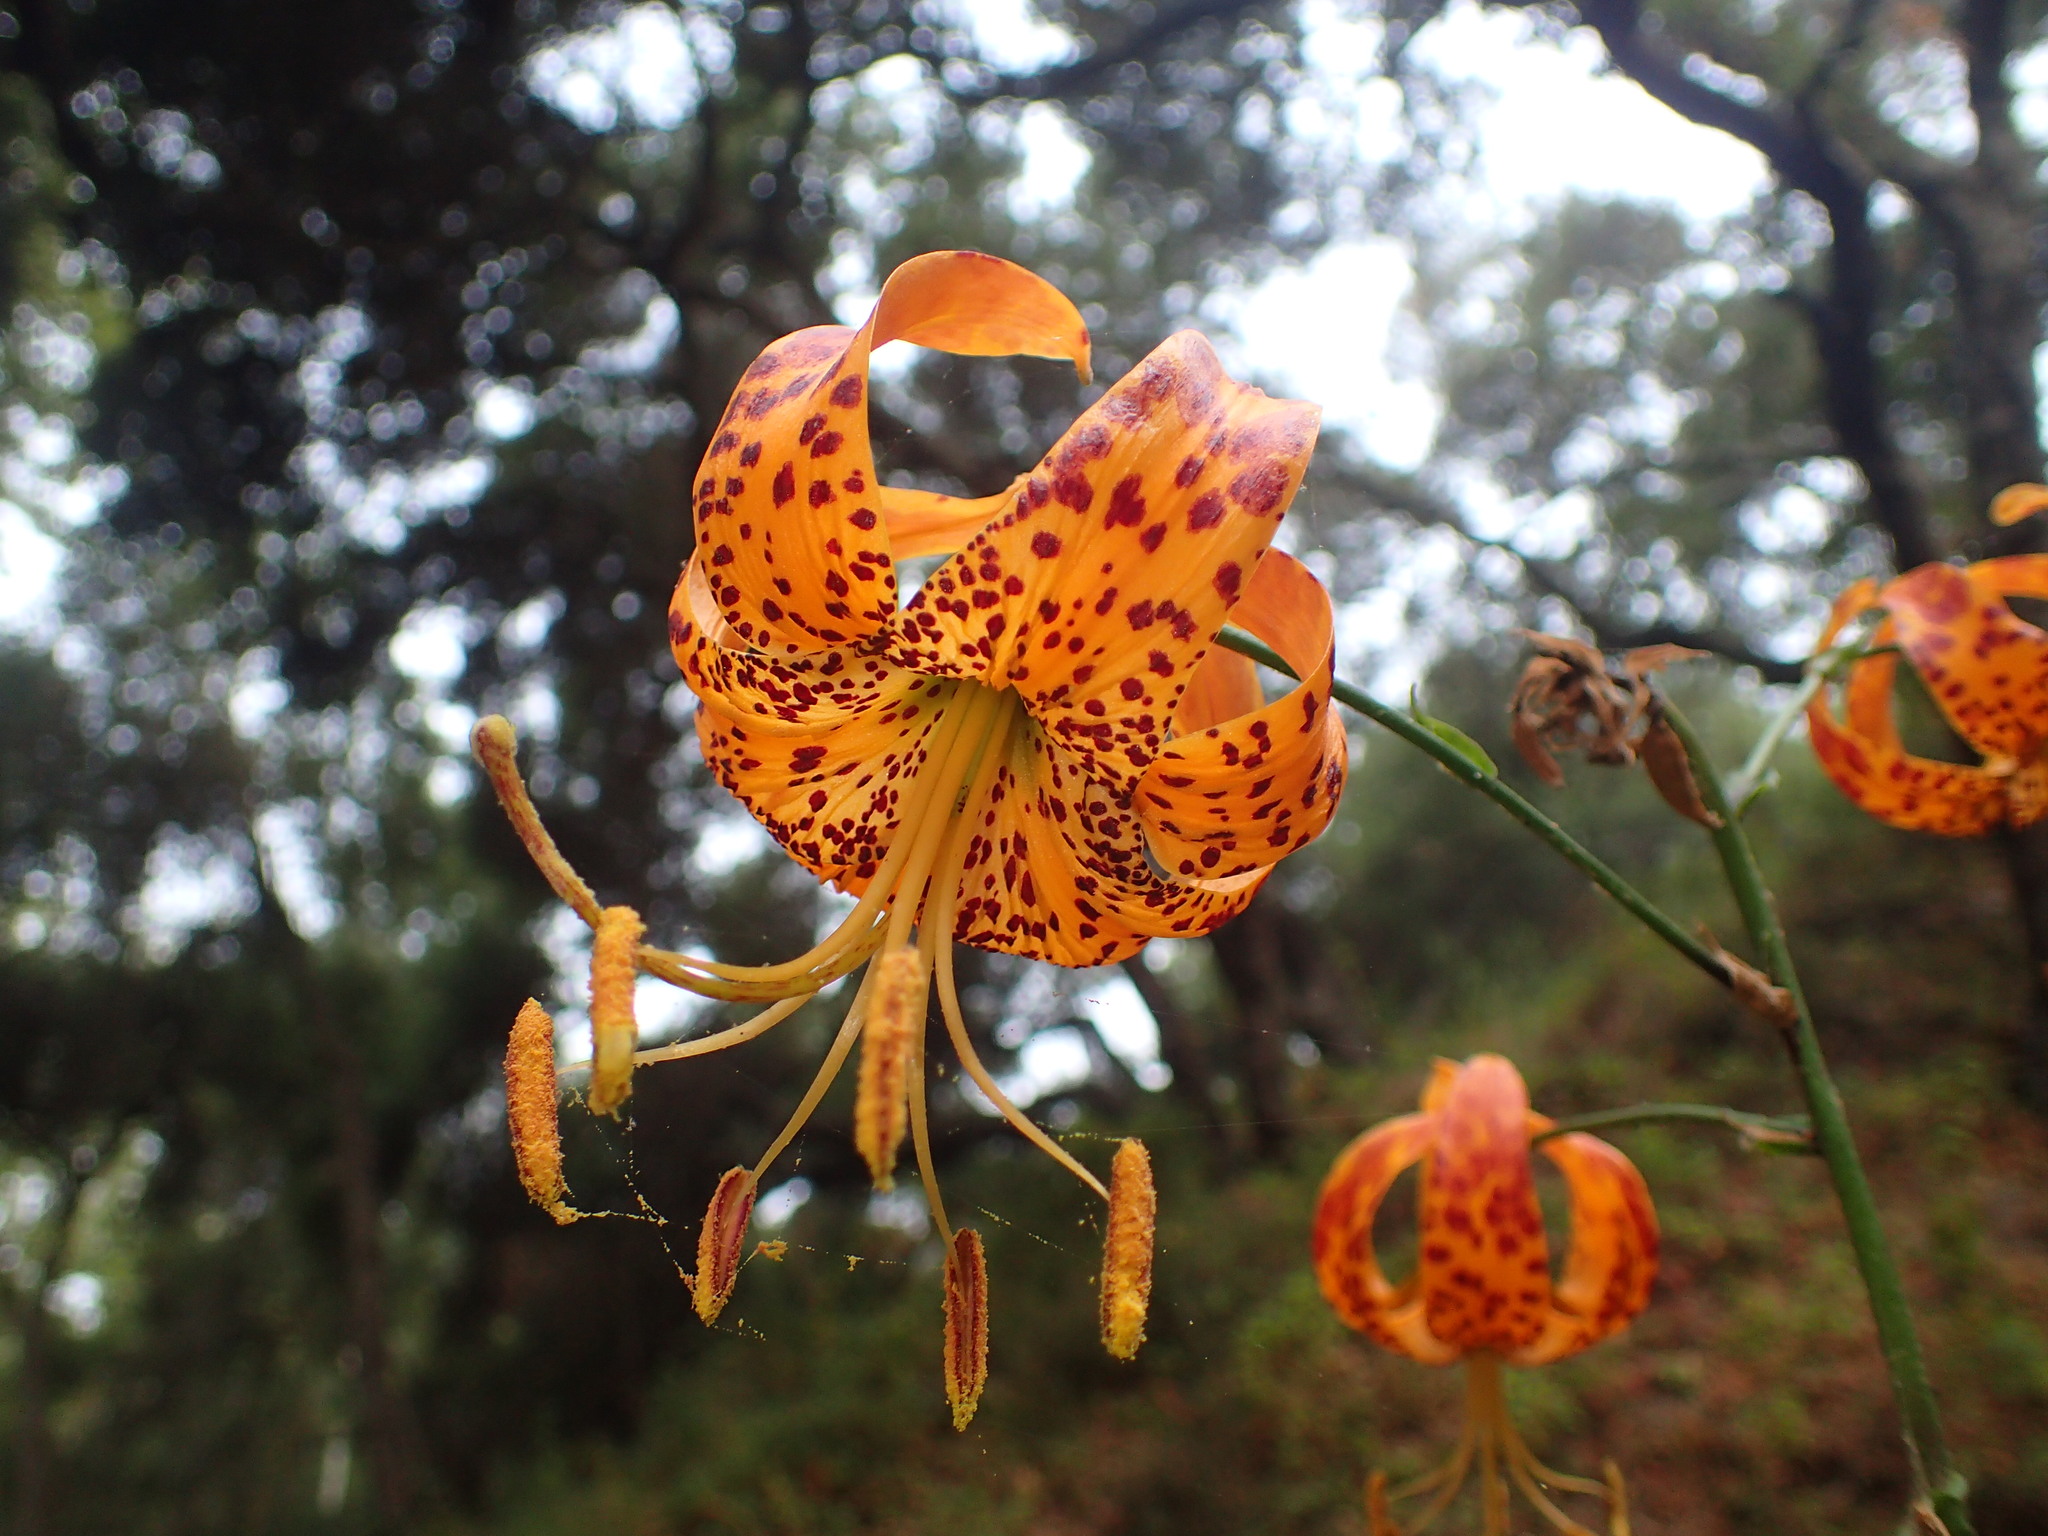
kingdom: Plantae
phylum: Tracheophyta
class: Liliopsida
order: Liliales
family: Liliaceae
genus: Lilium
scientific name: Lilium humboldtii
